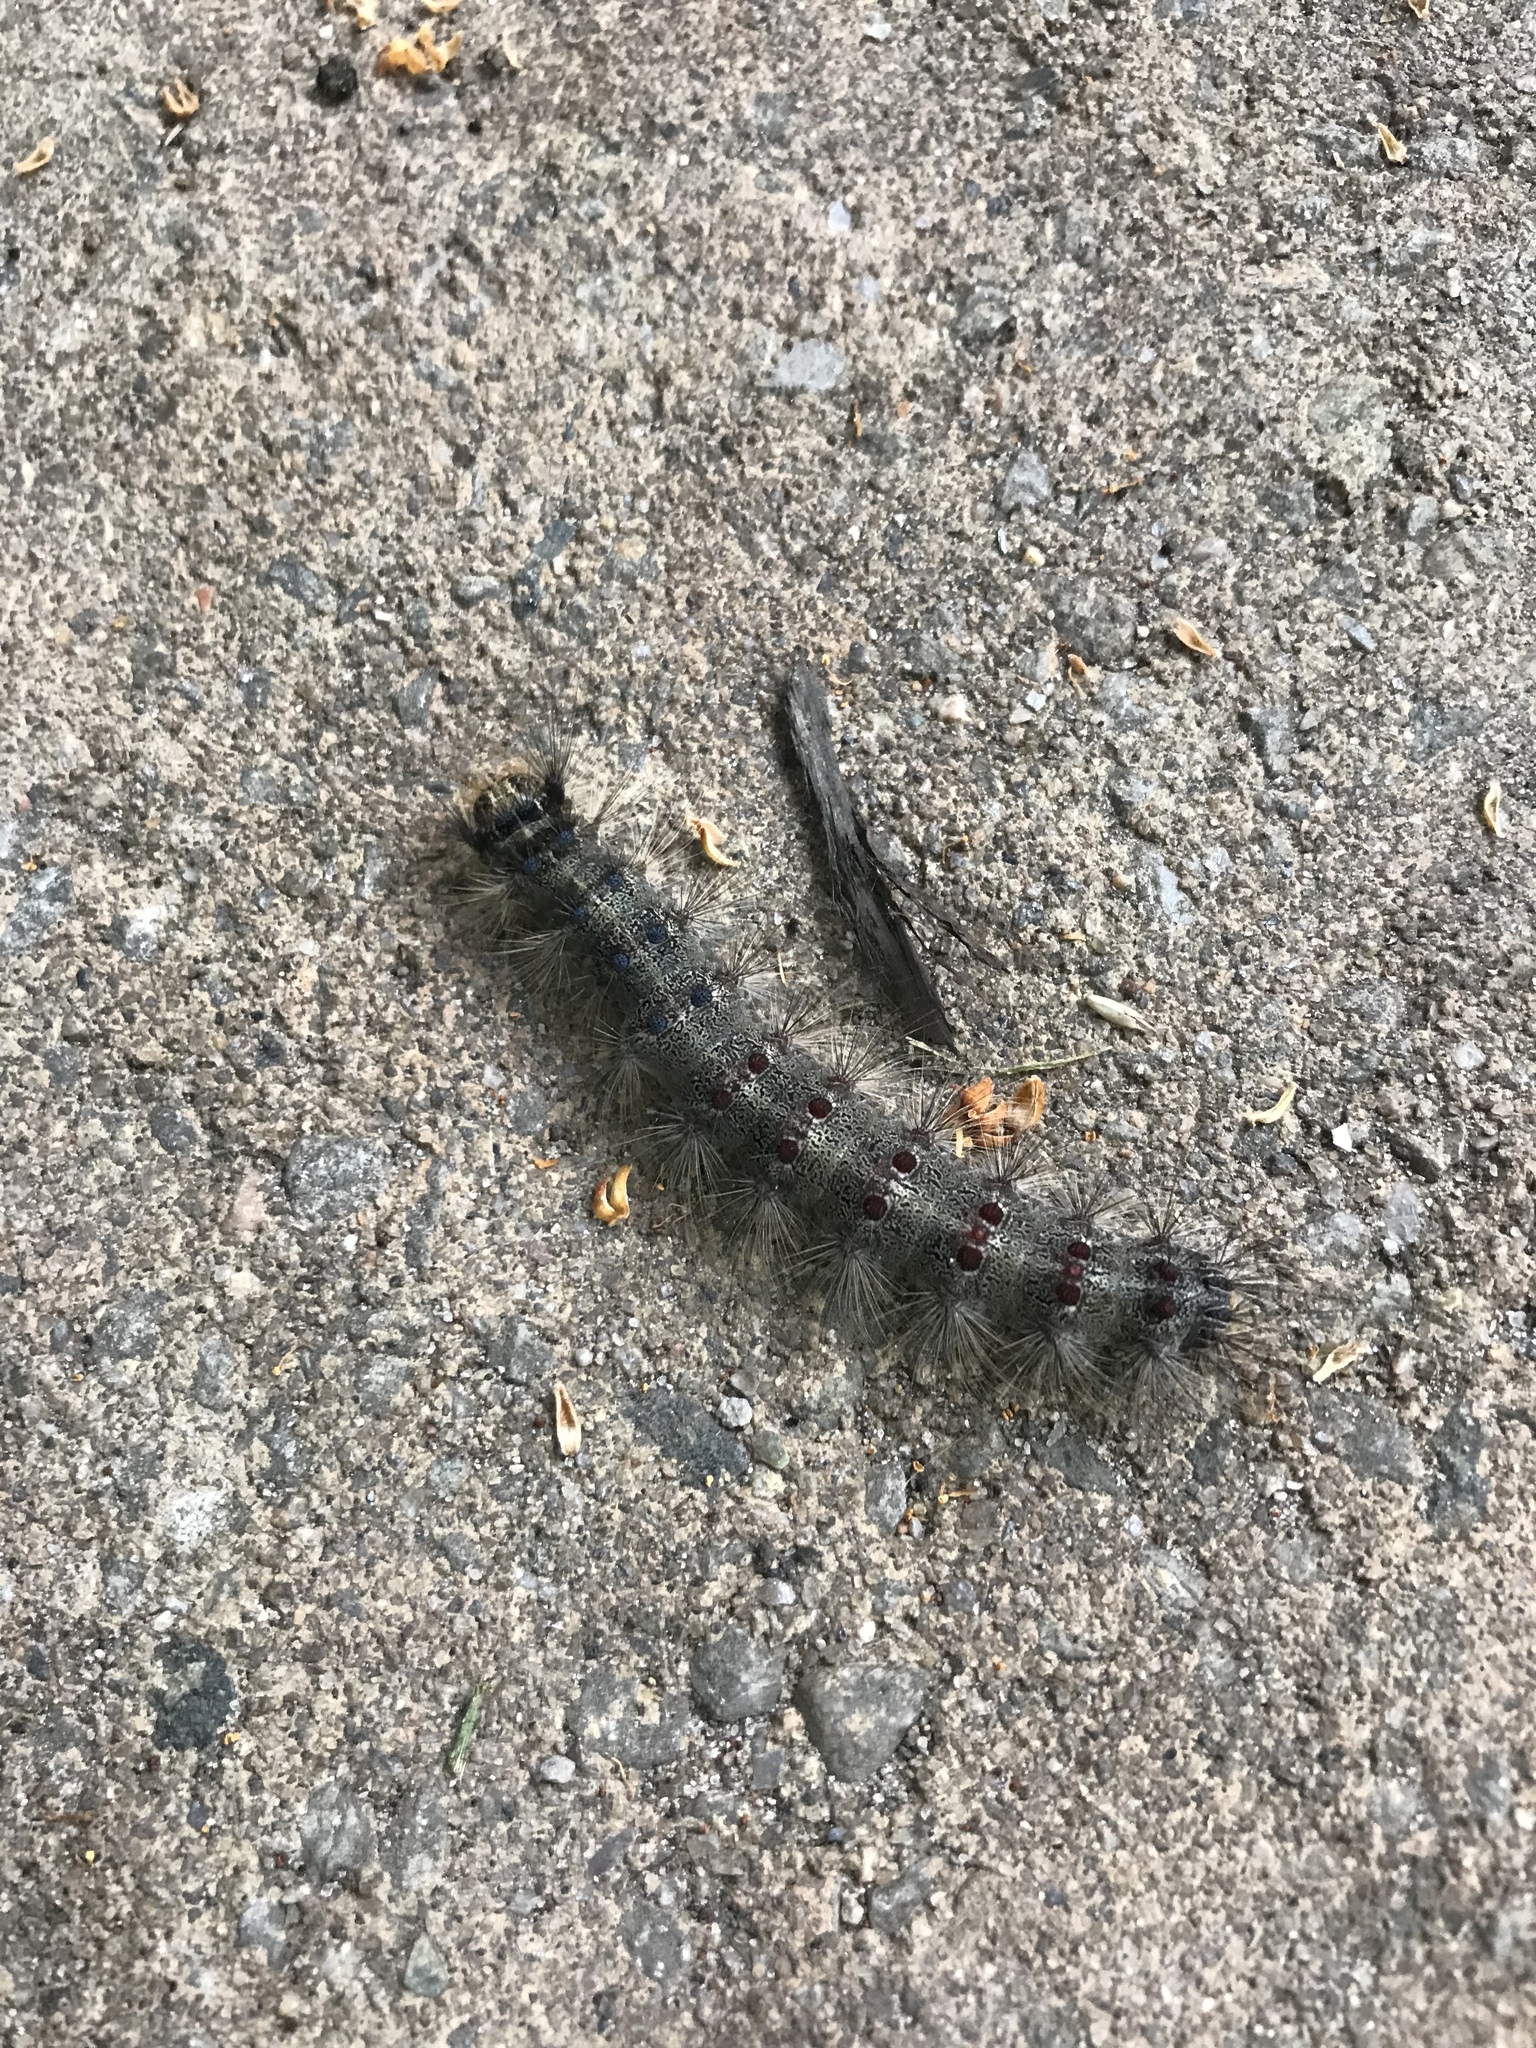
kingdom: Animalia
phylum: Arthropoda
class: Insecta
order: Lepidoptera
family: Erebidae
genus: Lymantria
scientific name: Lymantria dispar
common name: Gypsy moth
